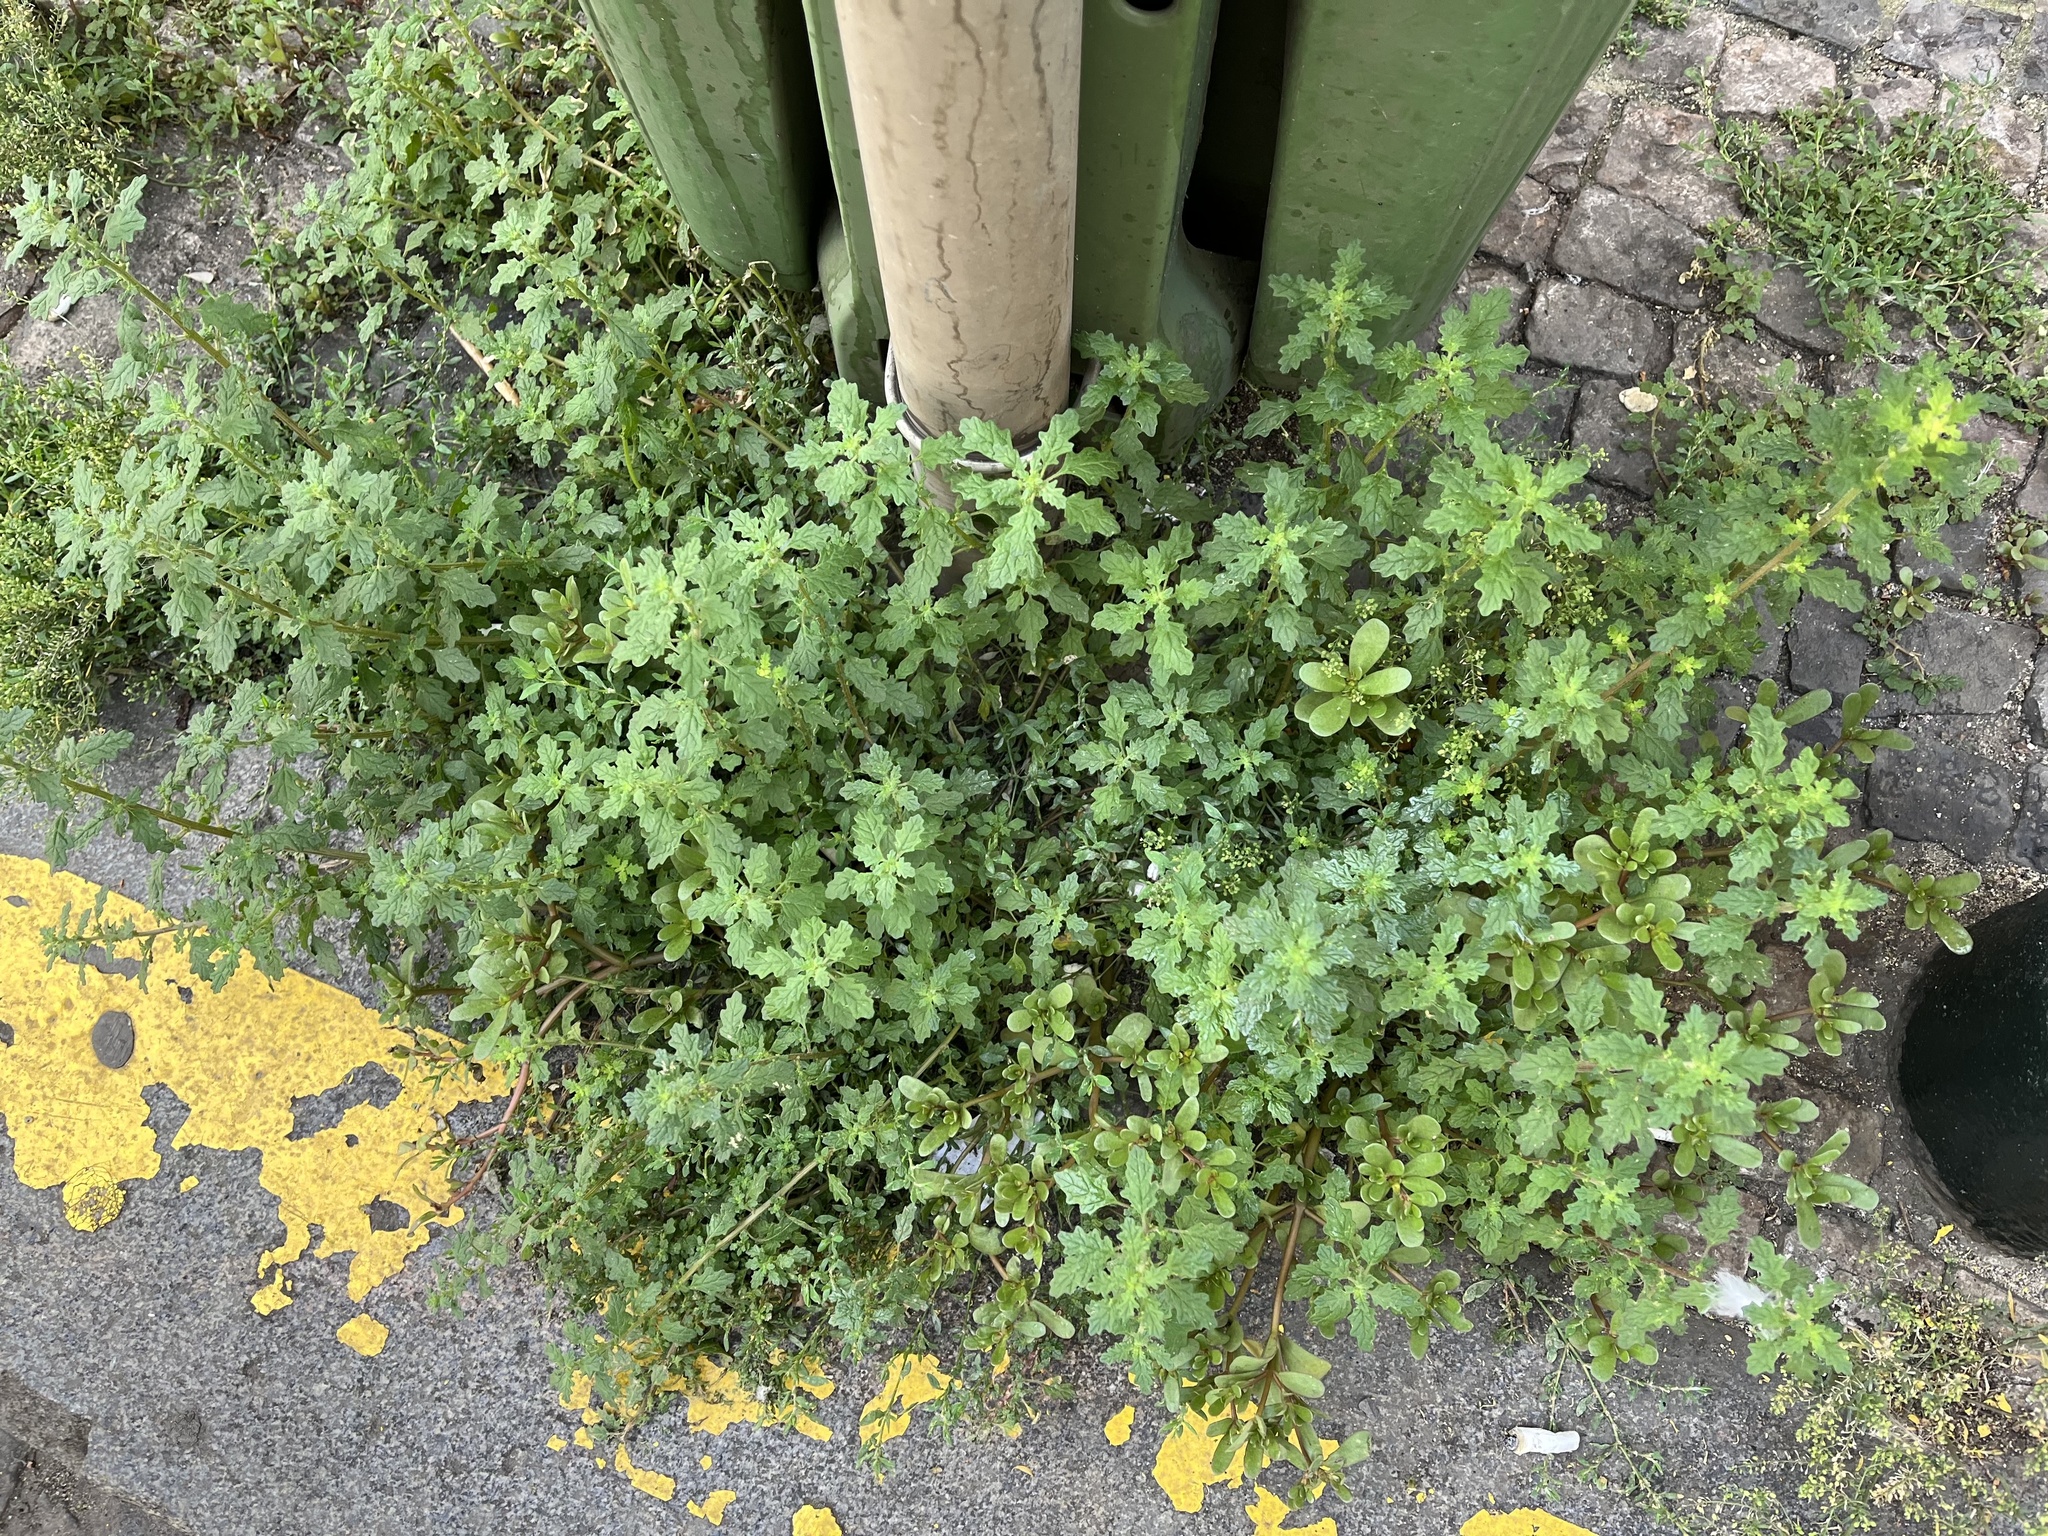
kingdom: Plantae
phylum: Tracheophyta
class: Magnoliopsida
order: Caryophyllales
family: Amaranthaceae
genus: Dysphania
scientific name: Dysphania pumilio
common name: Clammy goosefoot
